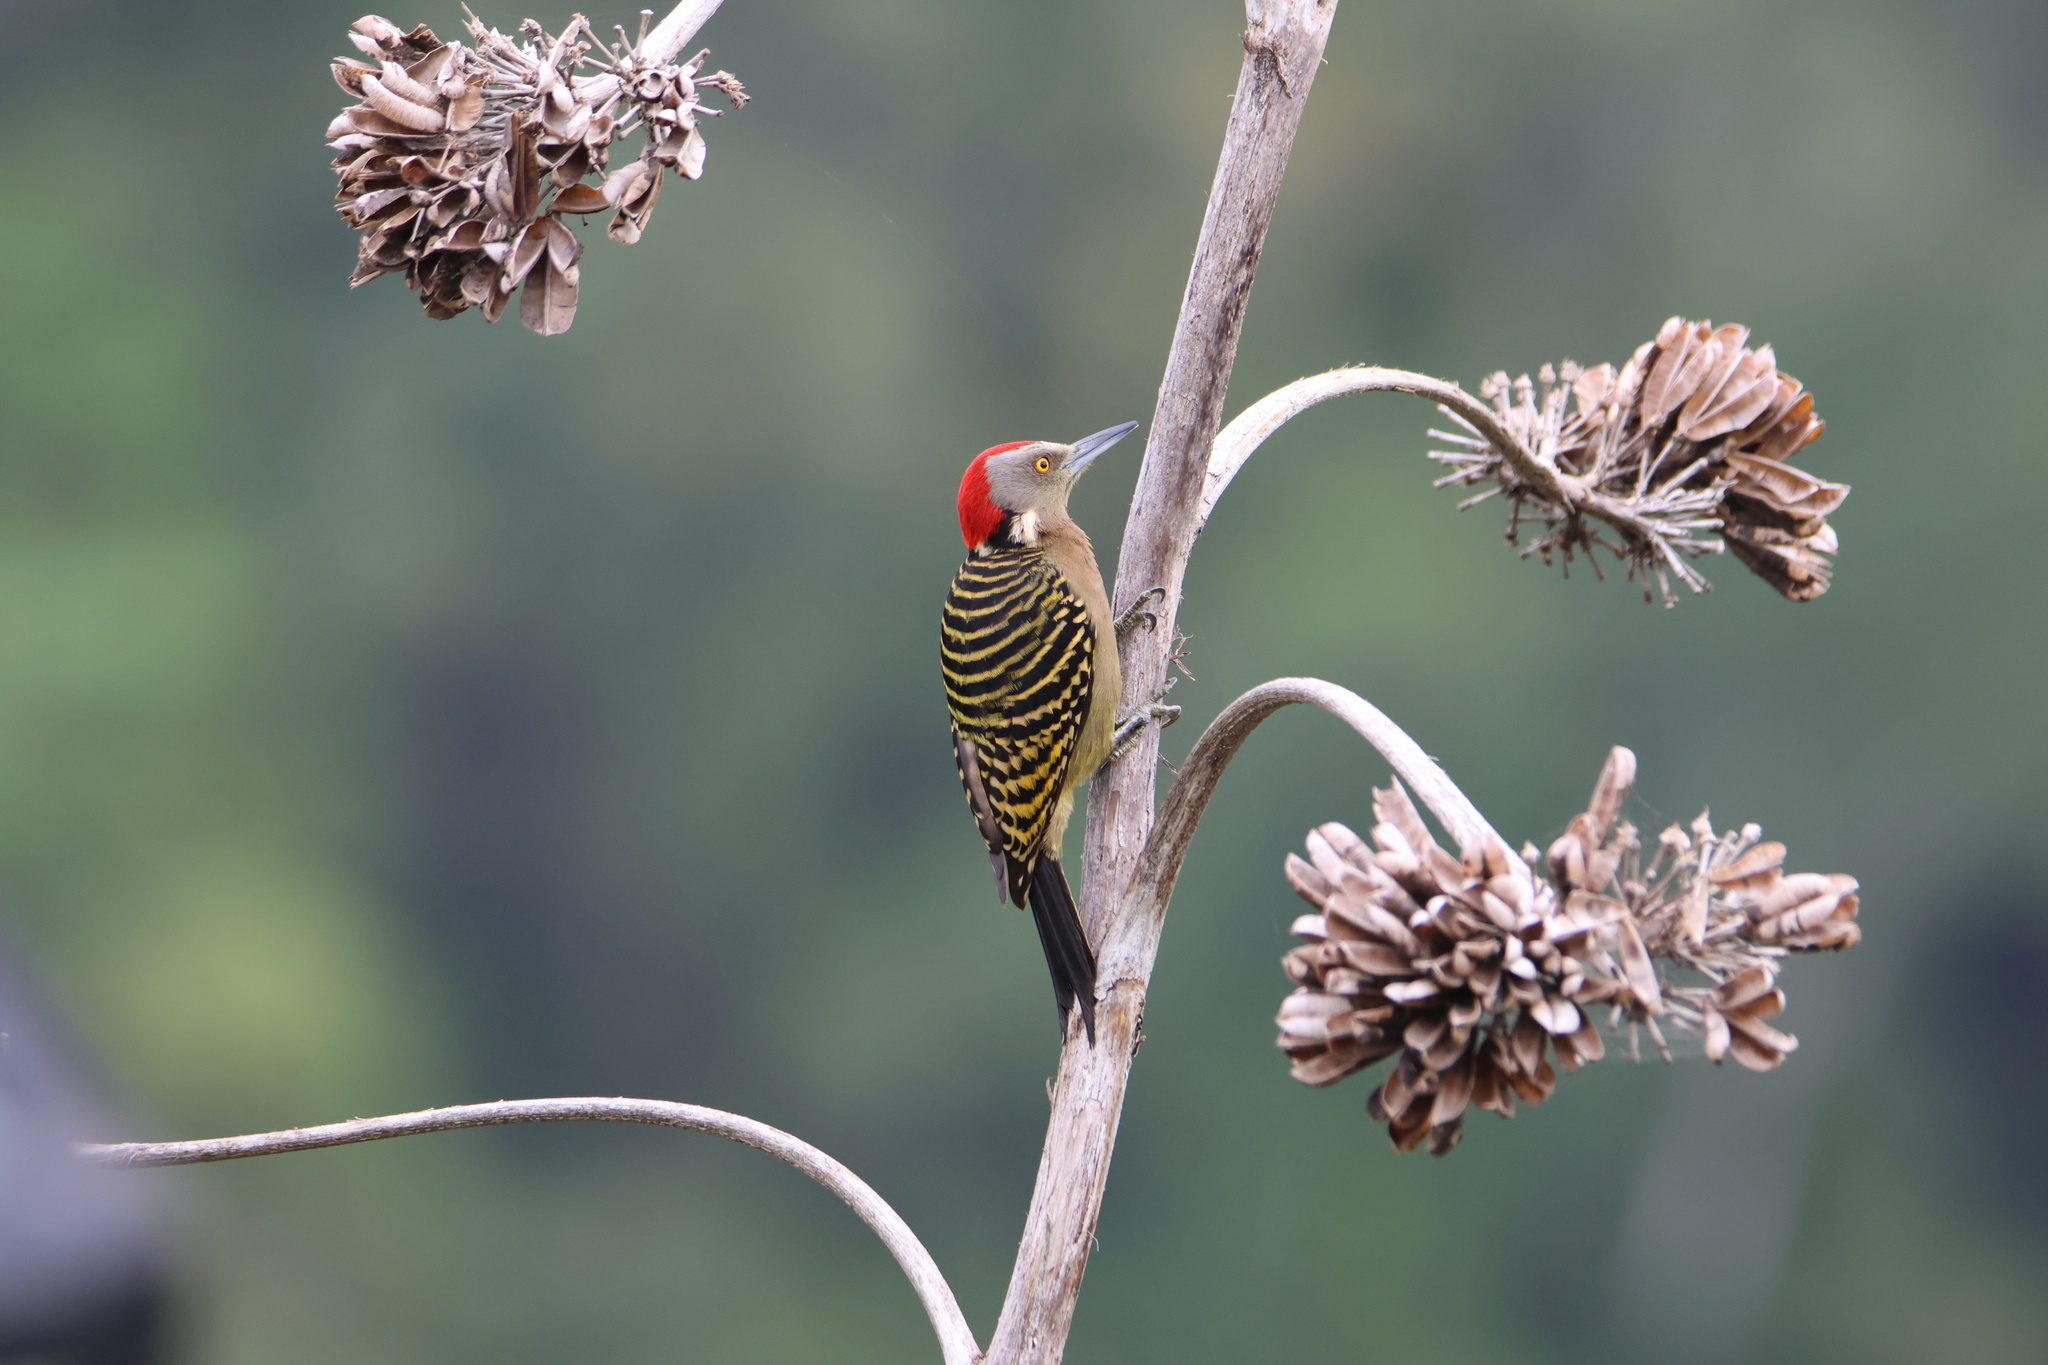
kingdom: Animalia
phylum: Chordata
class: Aves
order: Piciformes
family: Picidae
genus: Melanerpes
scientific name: Melanerpes striatus
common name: Hispaniolan woodpecker
